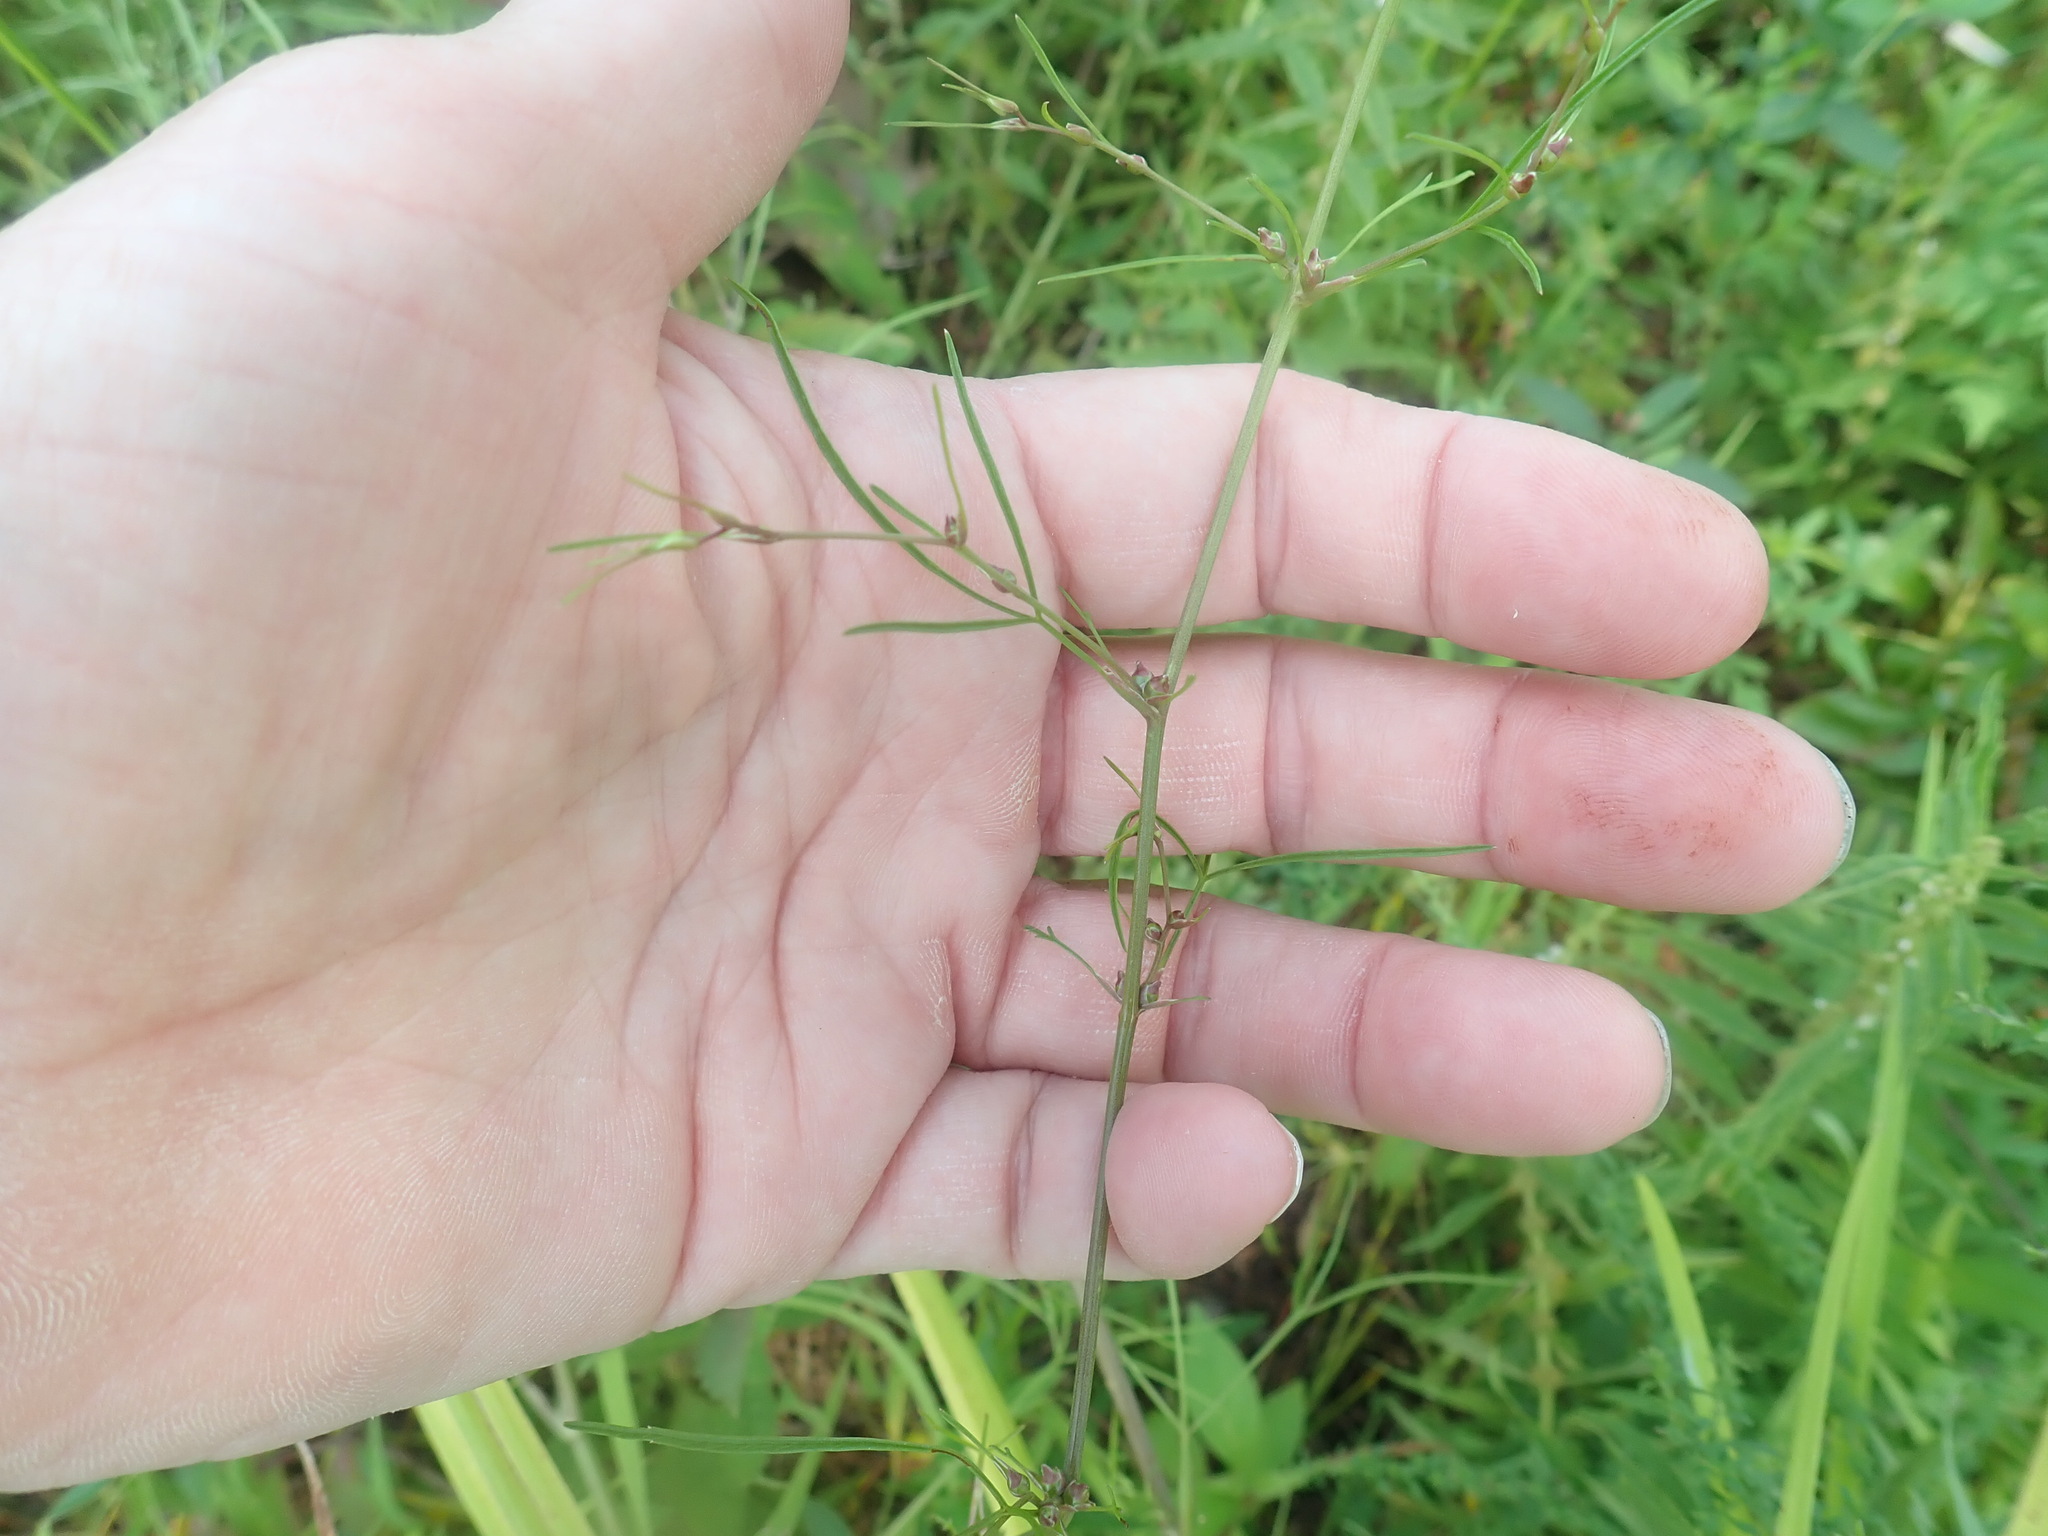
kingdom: Plantae
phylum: Tracheophyta
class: Magnoliopsida
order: Apiales
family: Apiaceae
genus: Cicuta
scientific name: Cicuta bulbifera
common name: Bulb-bearing water-hemlock
